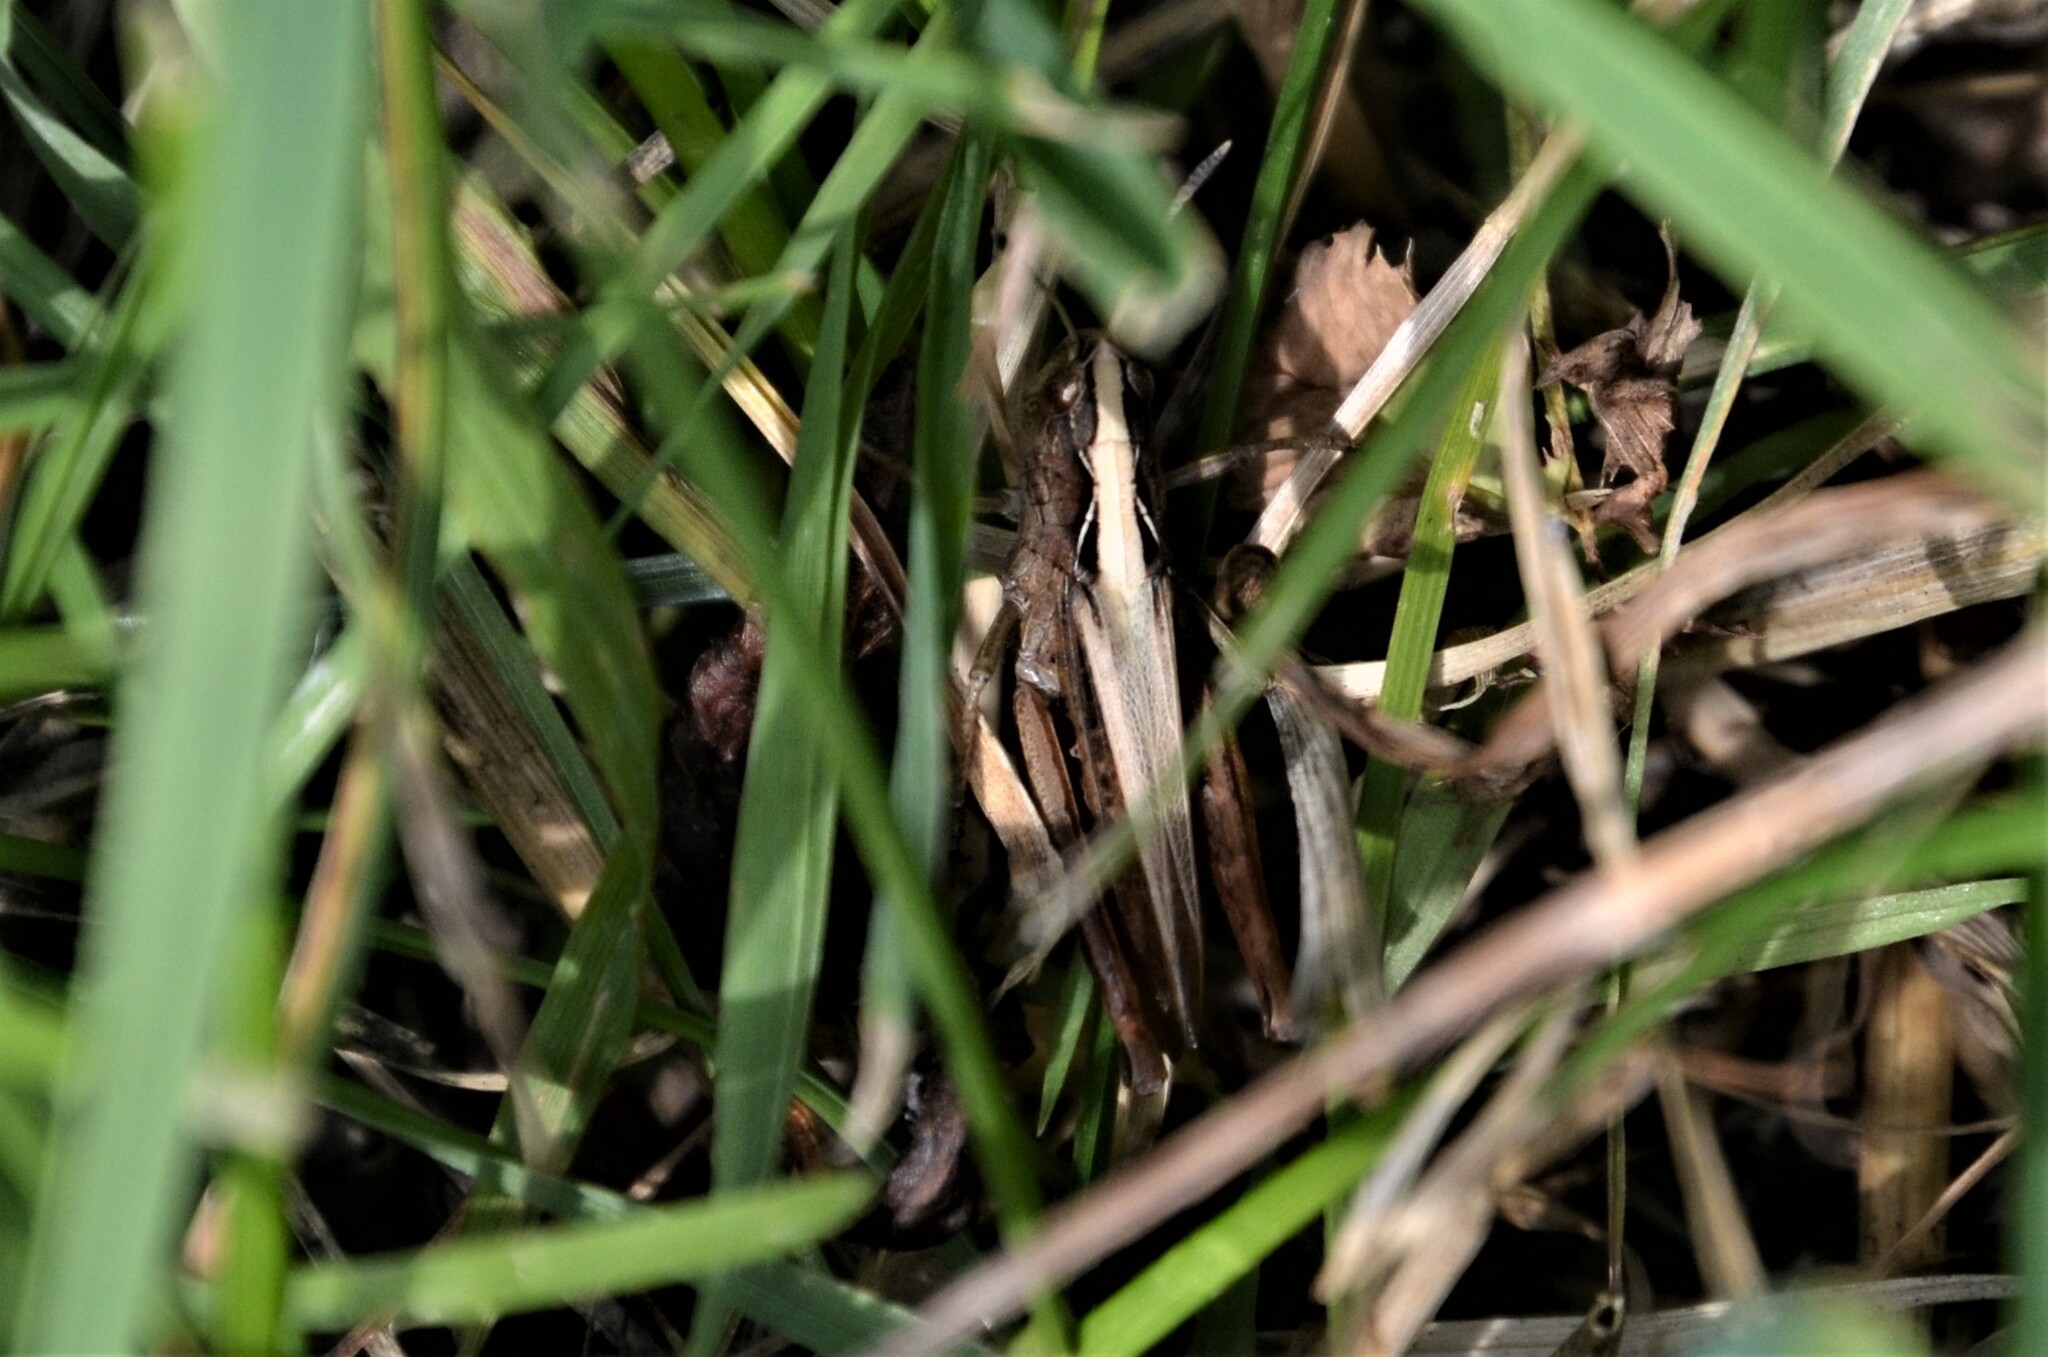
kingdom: Animalia
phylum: Arthropoda
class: Insecta
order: Orthoptera
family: Acrididae
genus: Gomphocerippus
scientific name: Gomphocerippus rufus
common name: Rufous grasshopper
